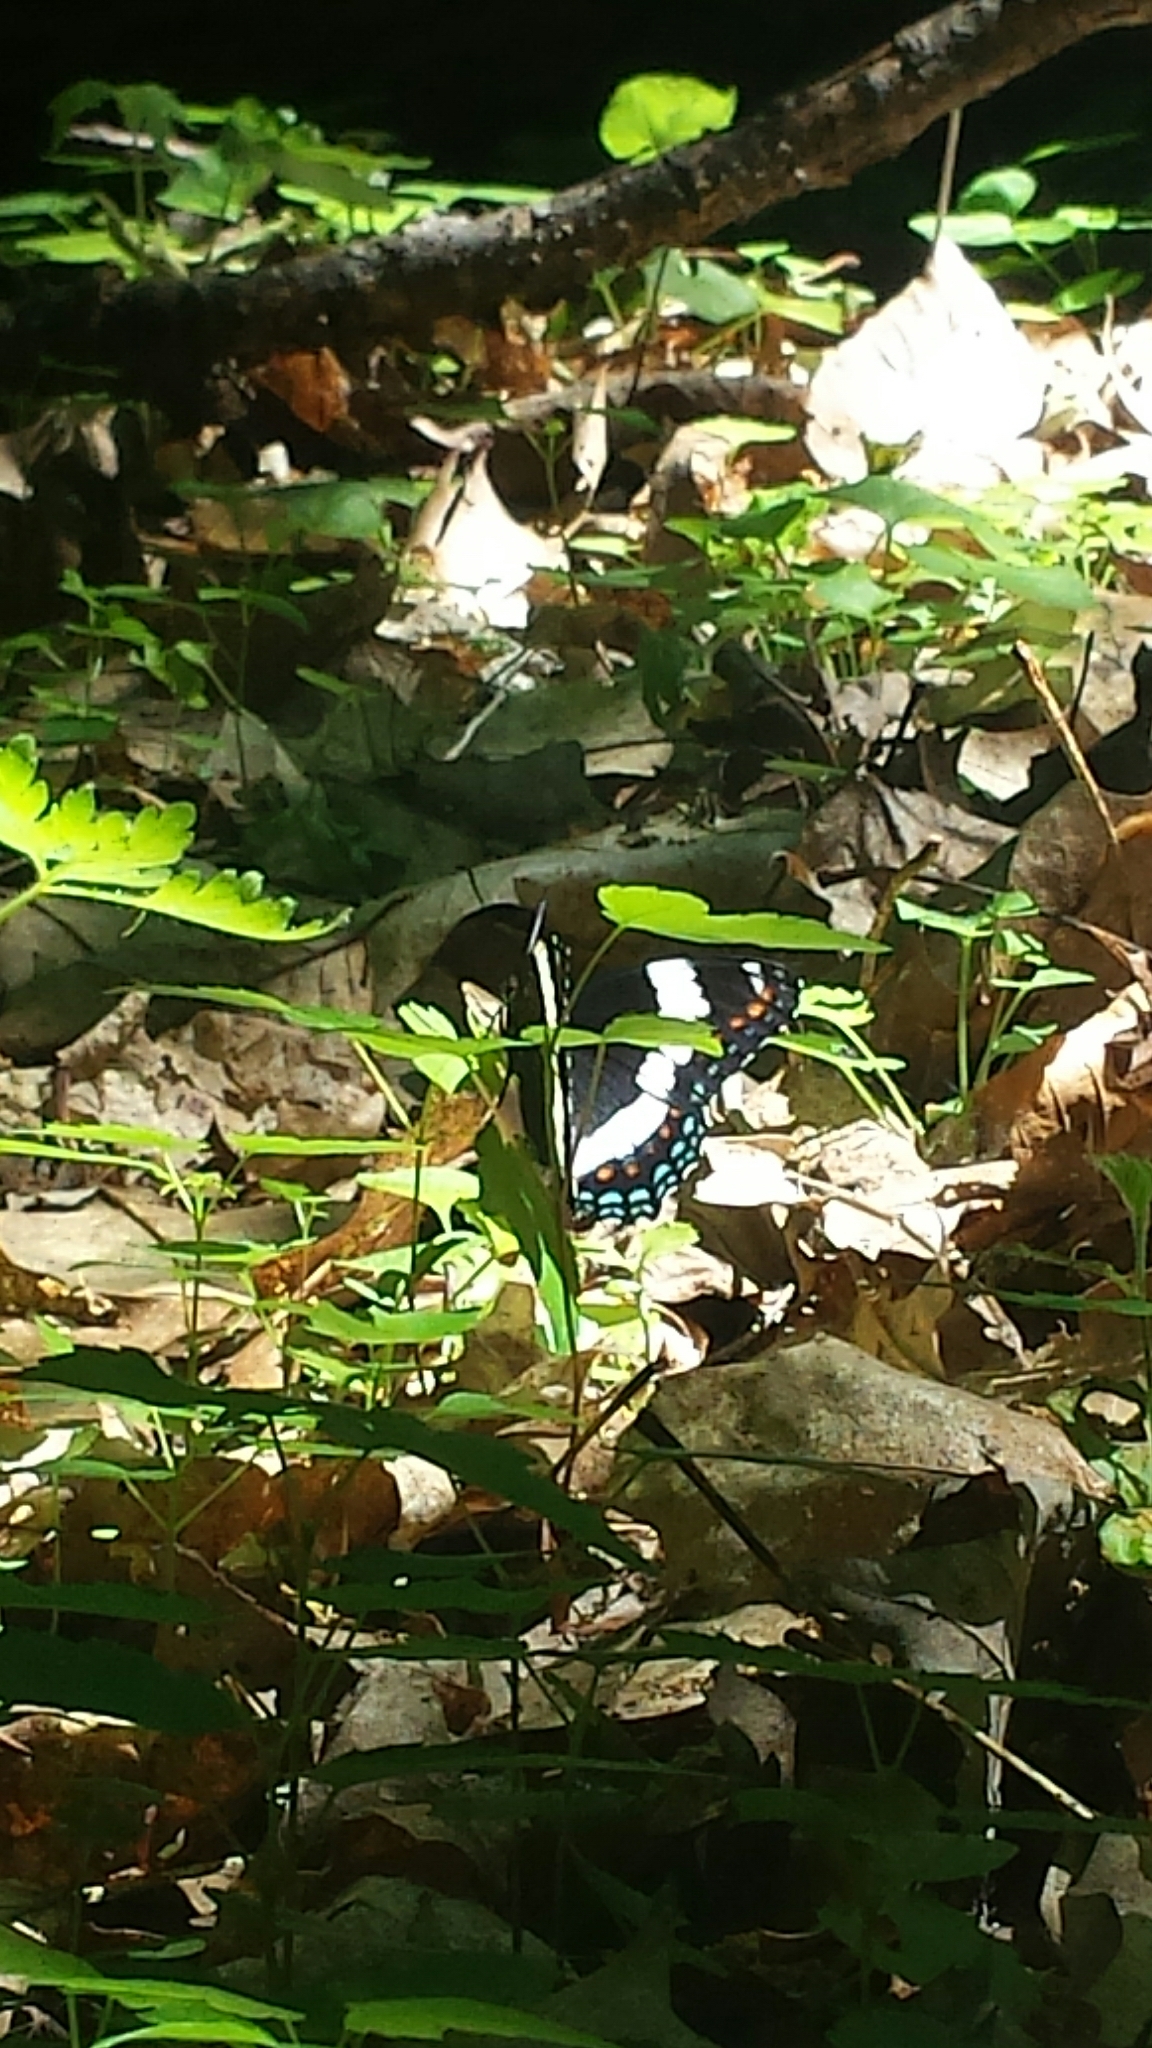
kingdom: Animalia
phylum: Arthropoda
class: Insecta
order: Lepidoptera
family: Nymphalidae
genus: Limenitis
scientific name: Limenitis arthemis
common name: Red-spotted admiral
